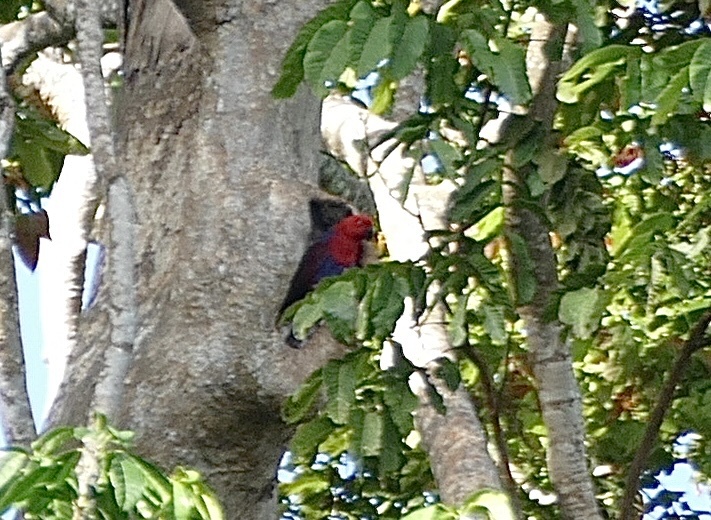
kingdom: Animalia
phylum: Chordata
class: Aves
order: Psittaciformes
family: Psittacidae
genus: Eclectus
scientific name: Eclectus roratus
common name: Eclectus parrot
